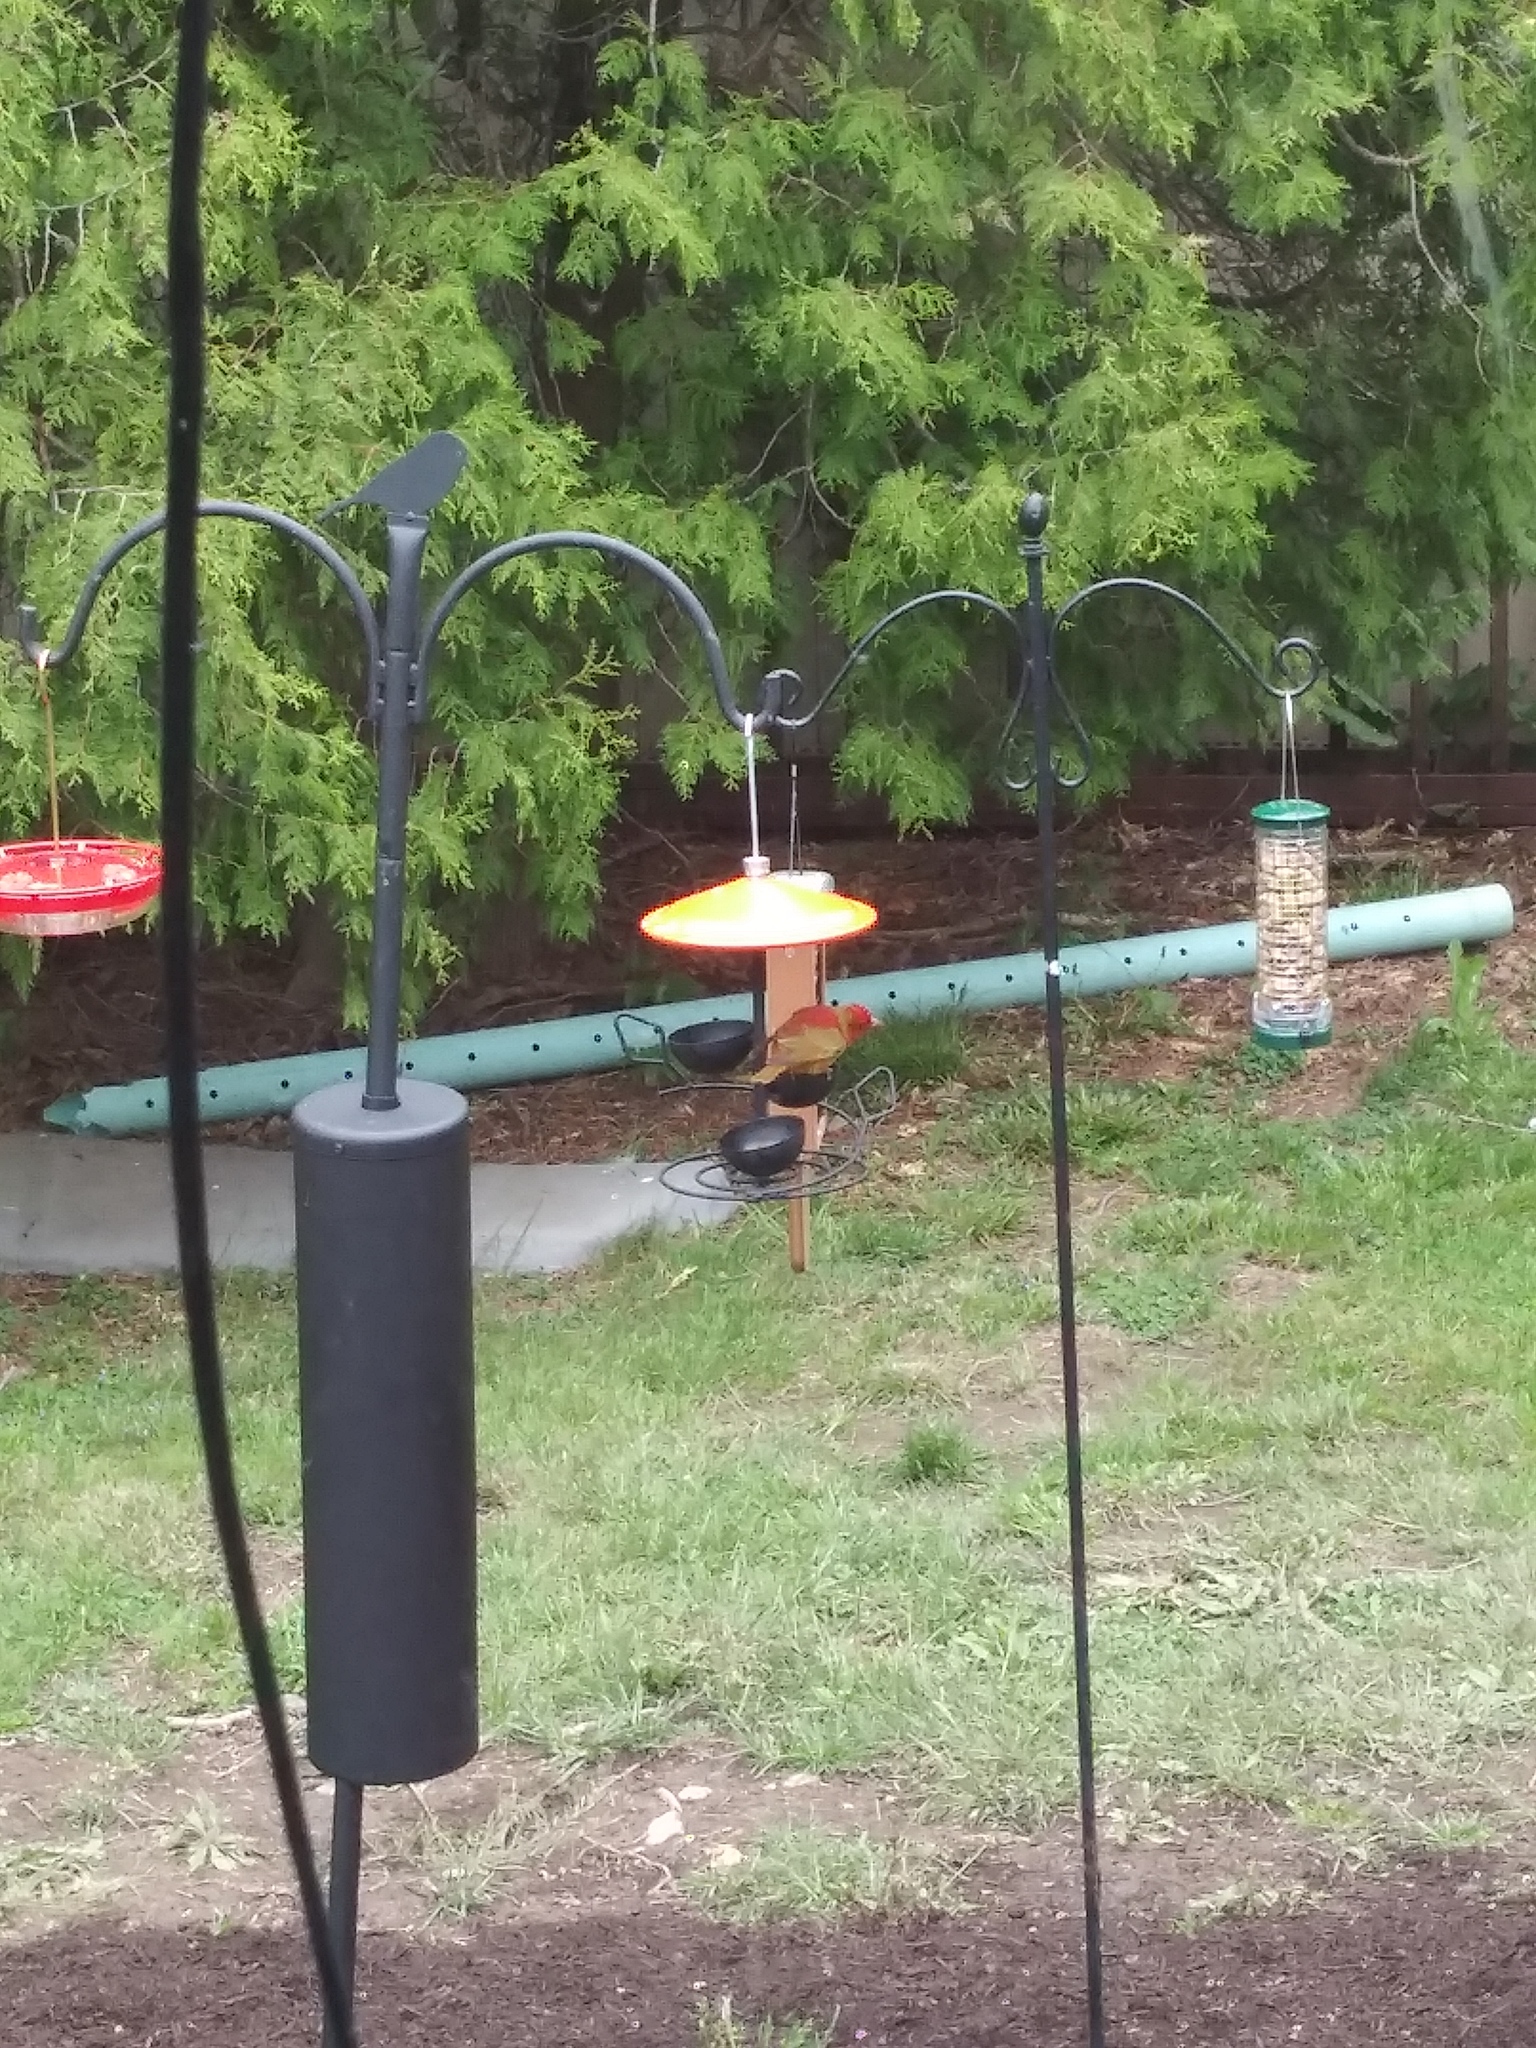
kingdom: Animalia
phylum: Chordata
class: Aves
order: Passeriformes
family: Cardinalidae
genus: Piranga
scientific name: Piranga rubra
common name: Summer tanager
